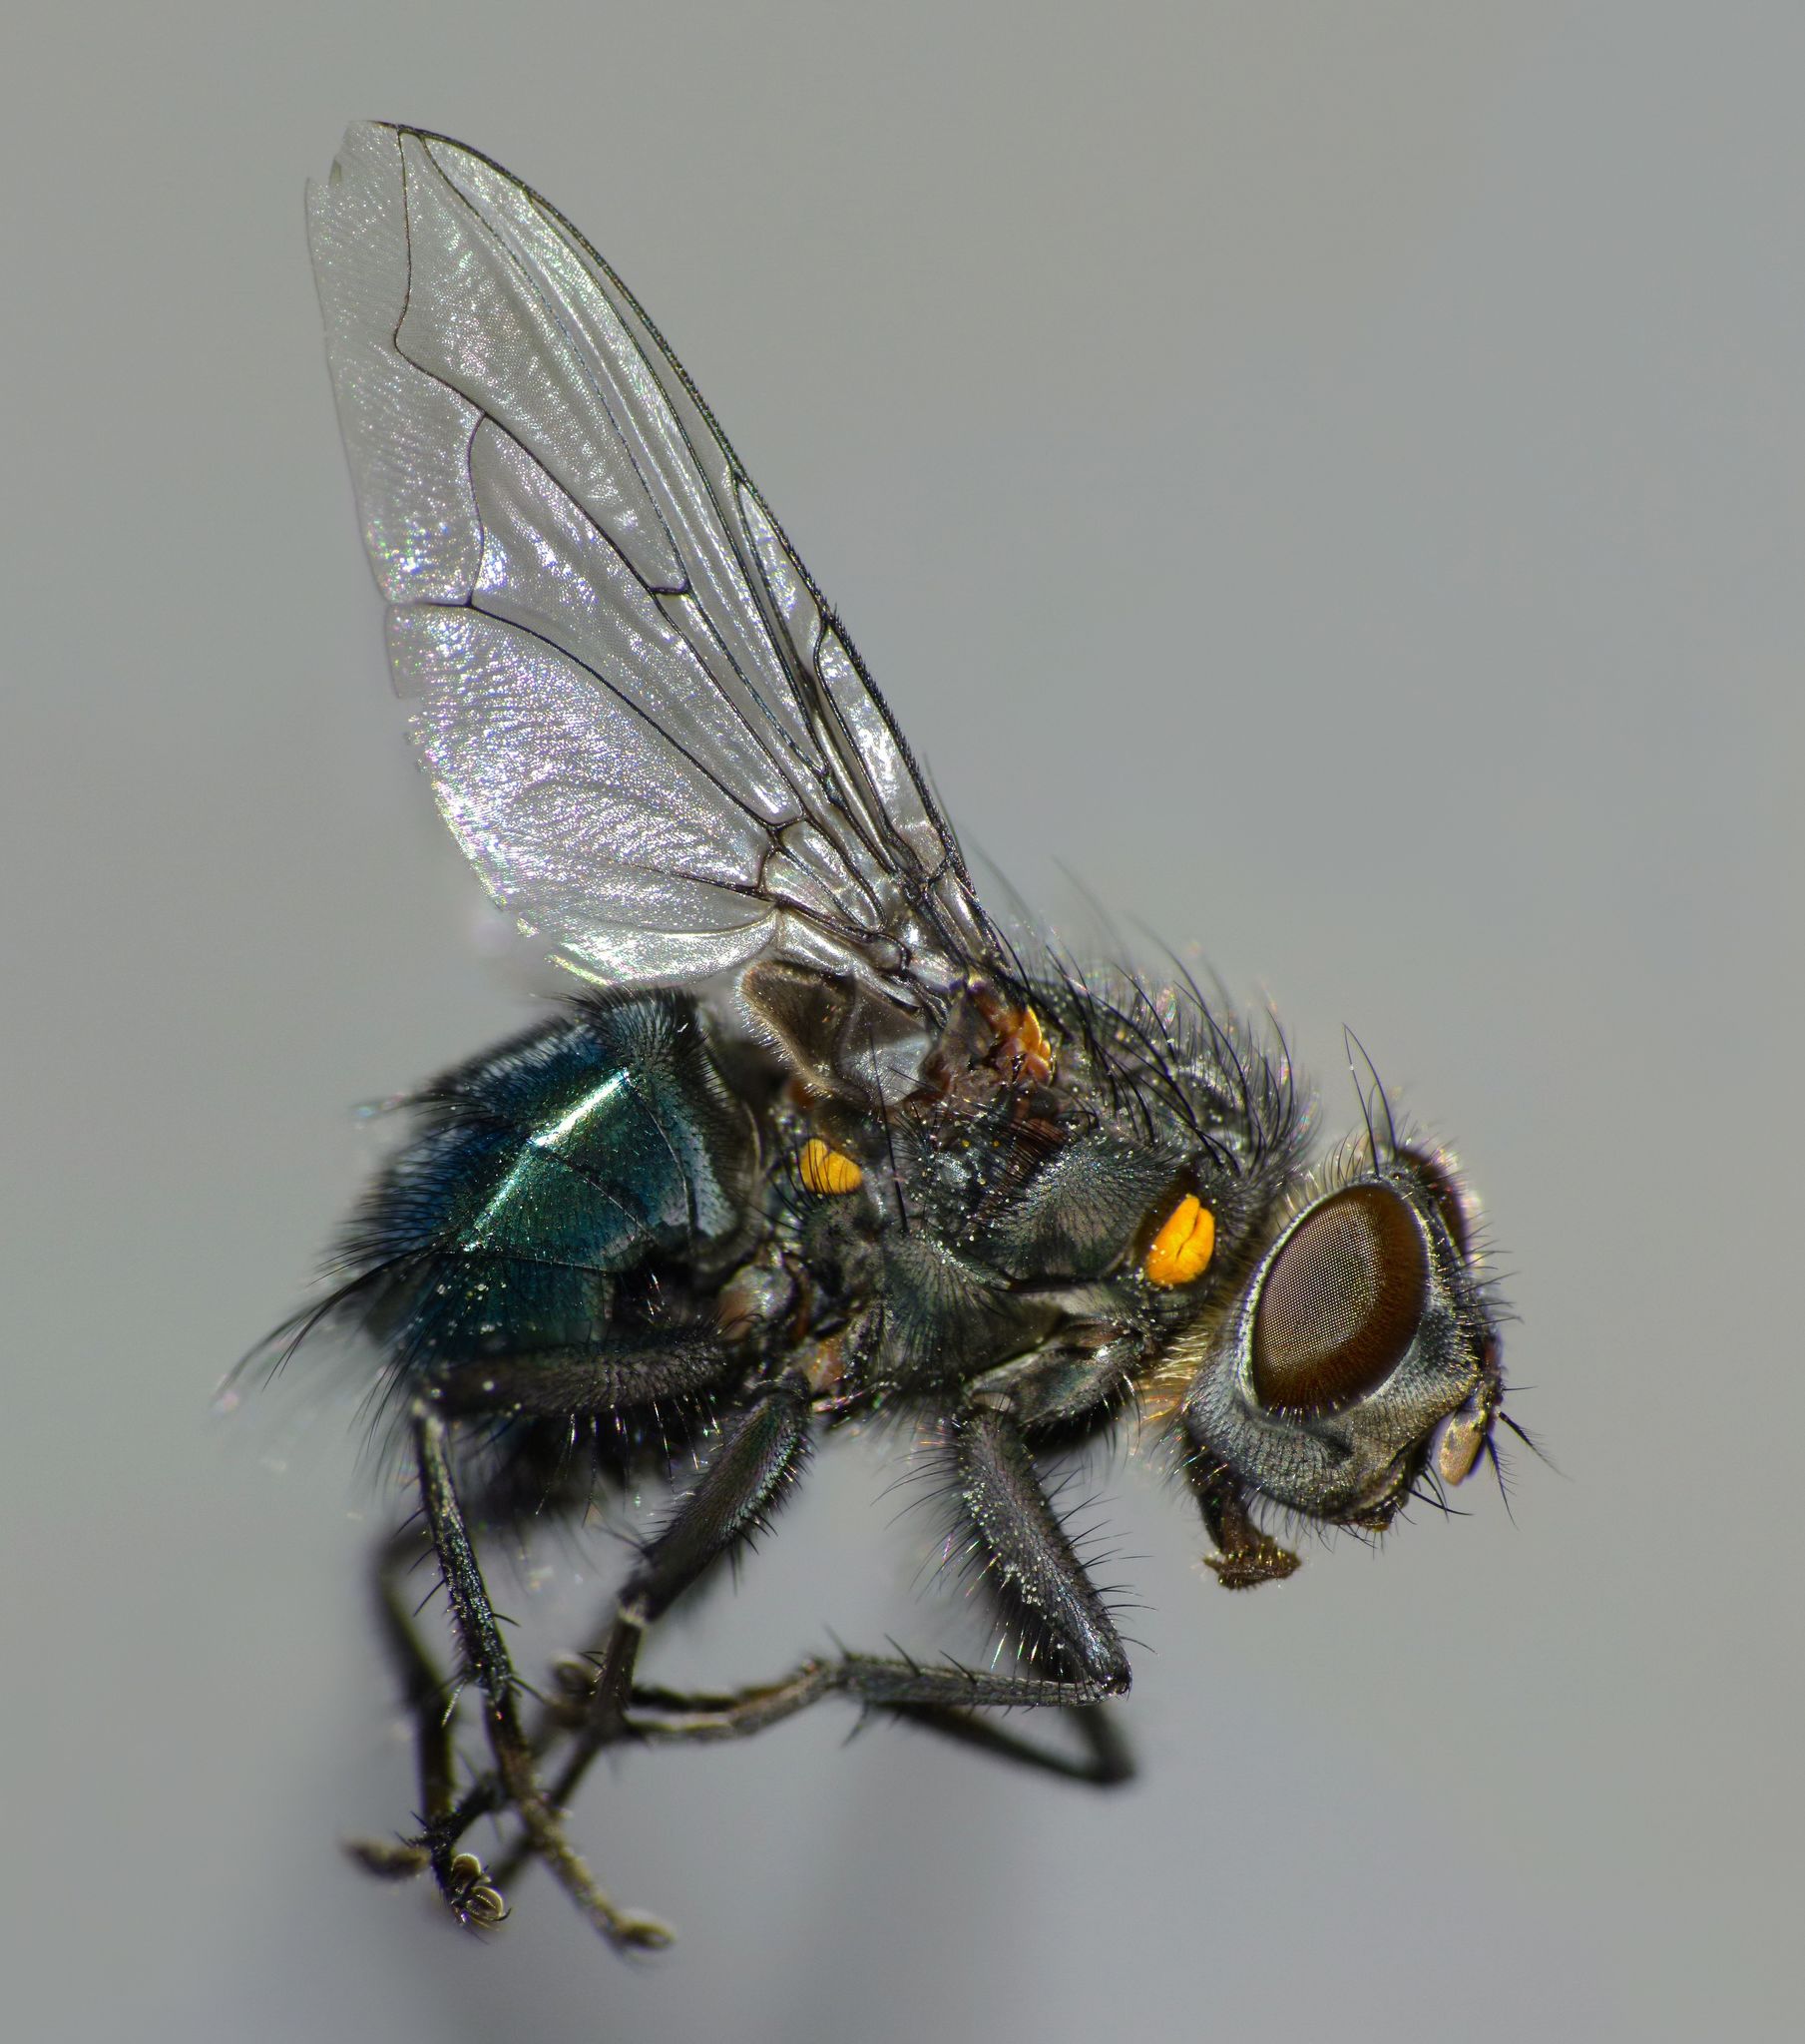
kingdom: Animalia
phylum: Arthropoda
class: Insecta
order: Diptera
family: Calliphoridae
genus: Ptilonesia
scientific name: Ptilonesia auronotata
